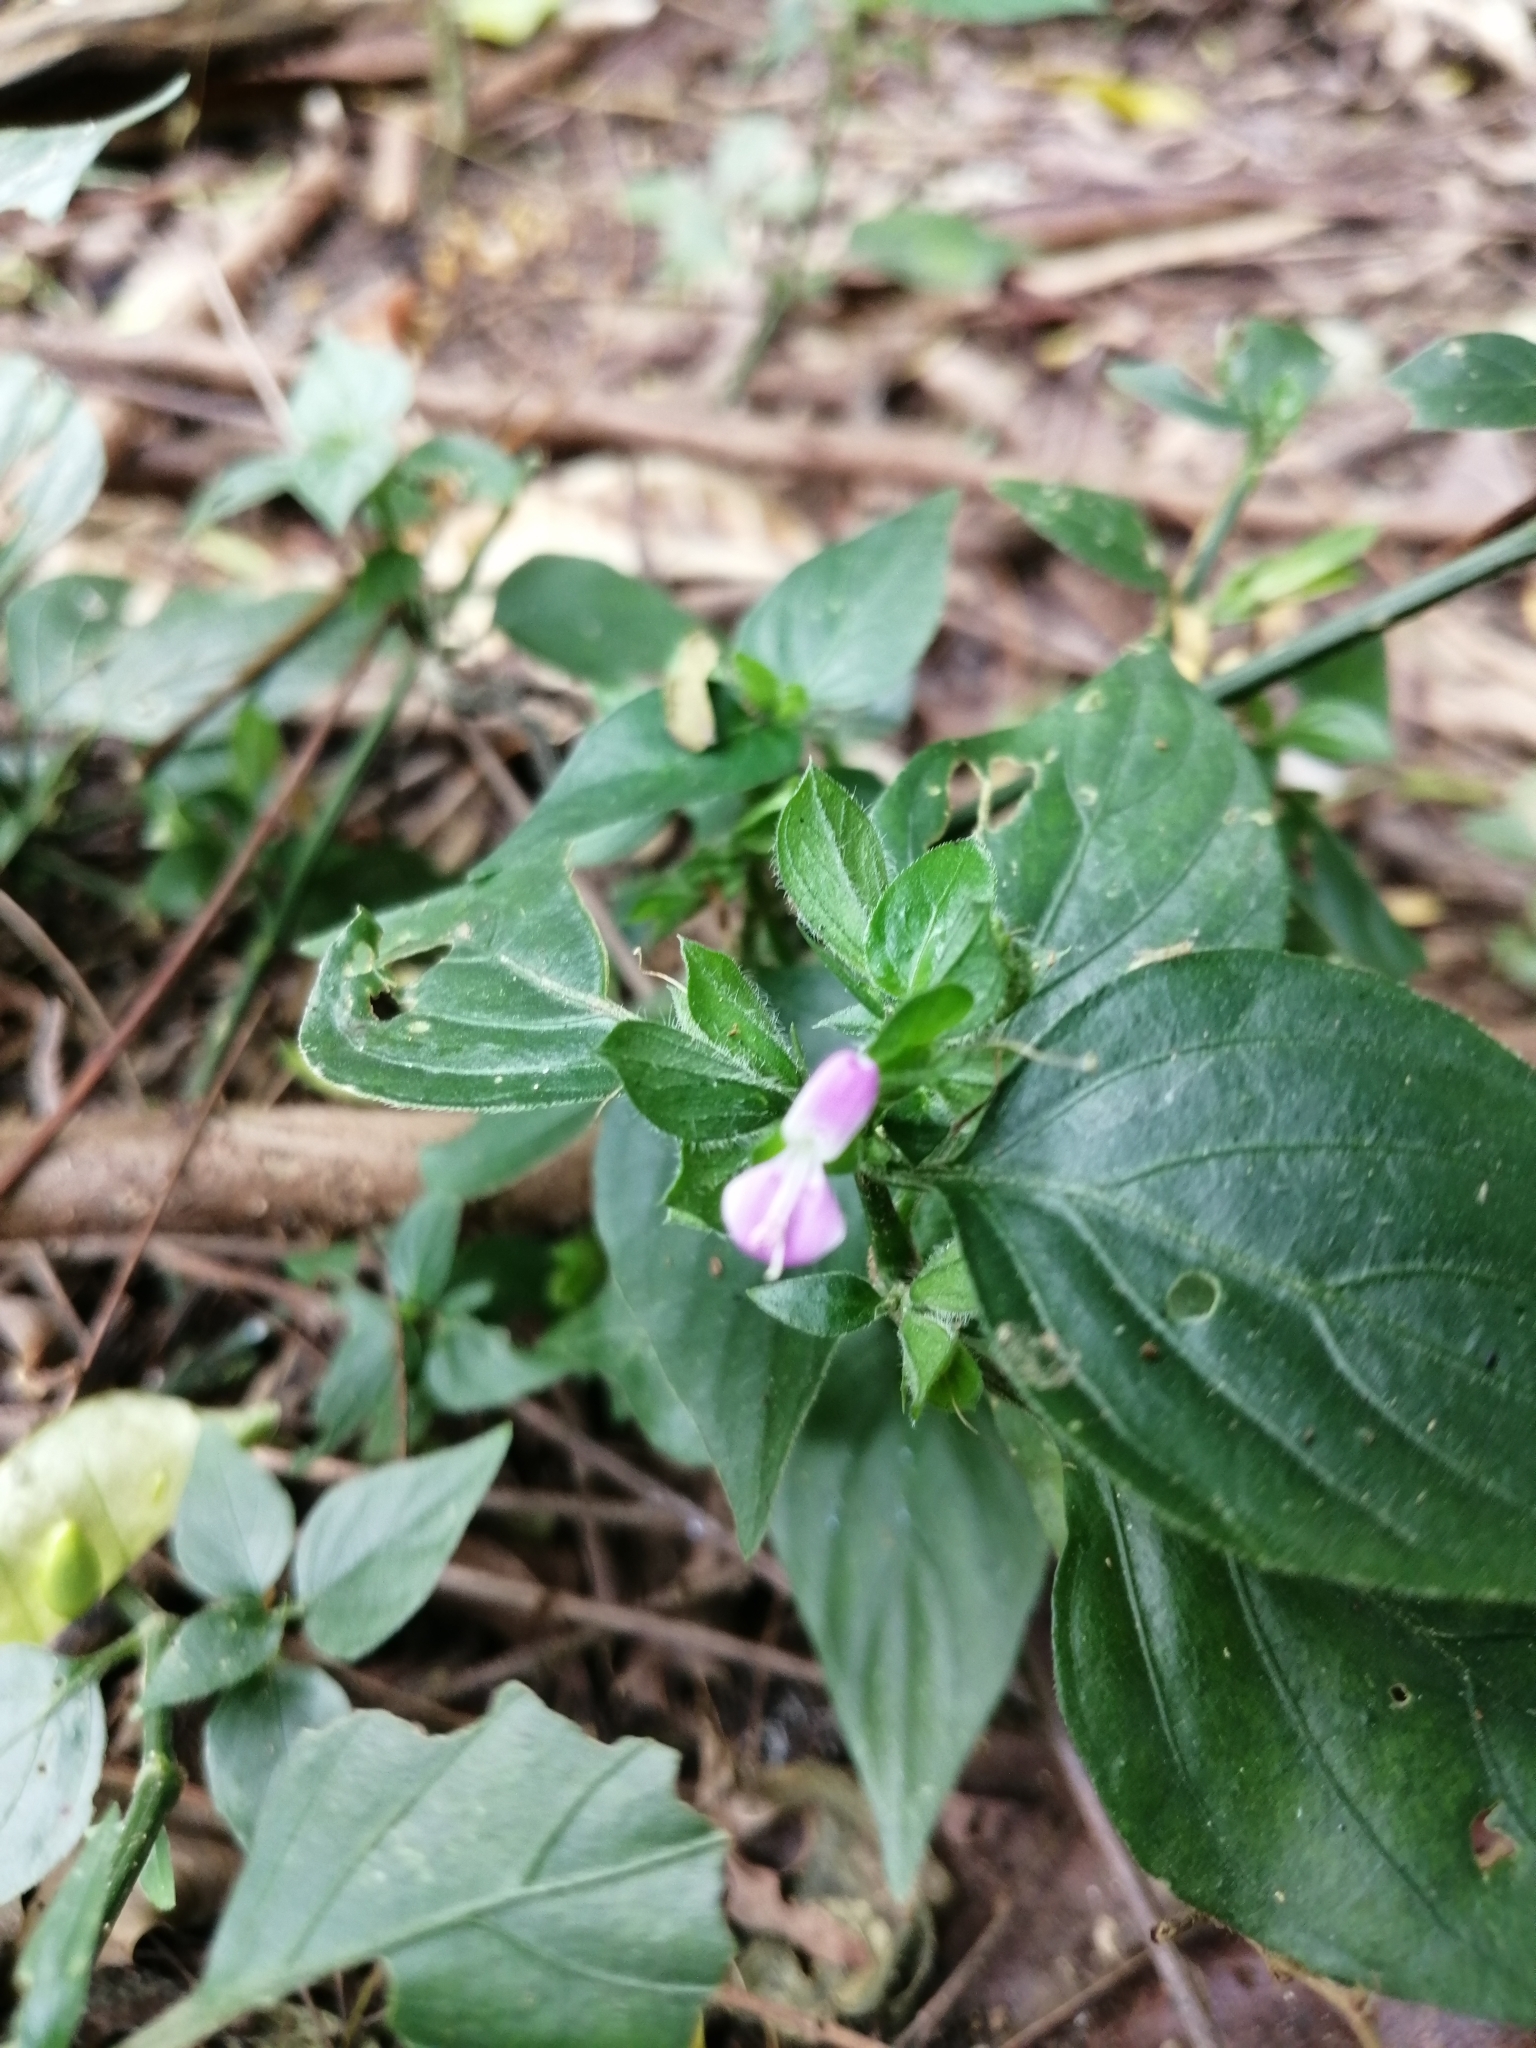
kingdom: Plantae
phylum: Tracheophyta
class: Magnoliopsida
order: Lamiales
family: Acanthaceae
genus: Dicliptera
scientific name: Dicliptera chinensis
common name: Chinese foldwing
